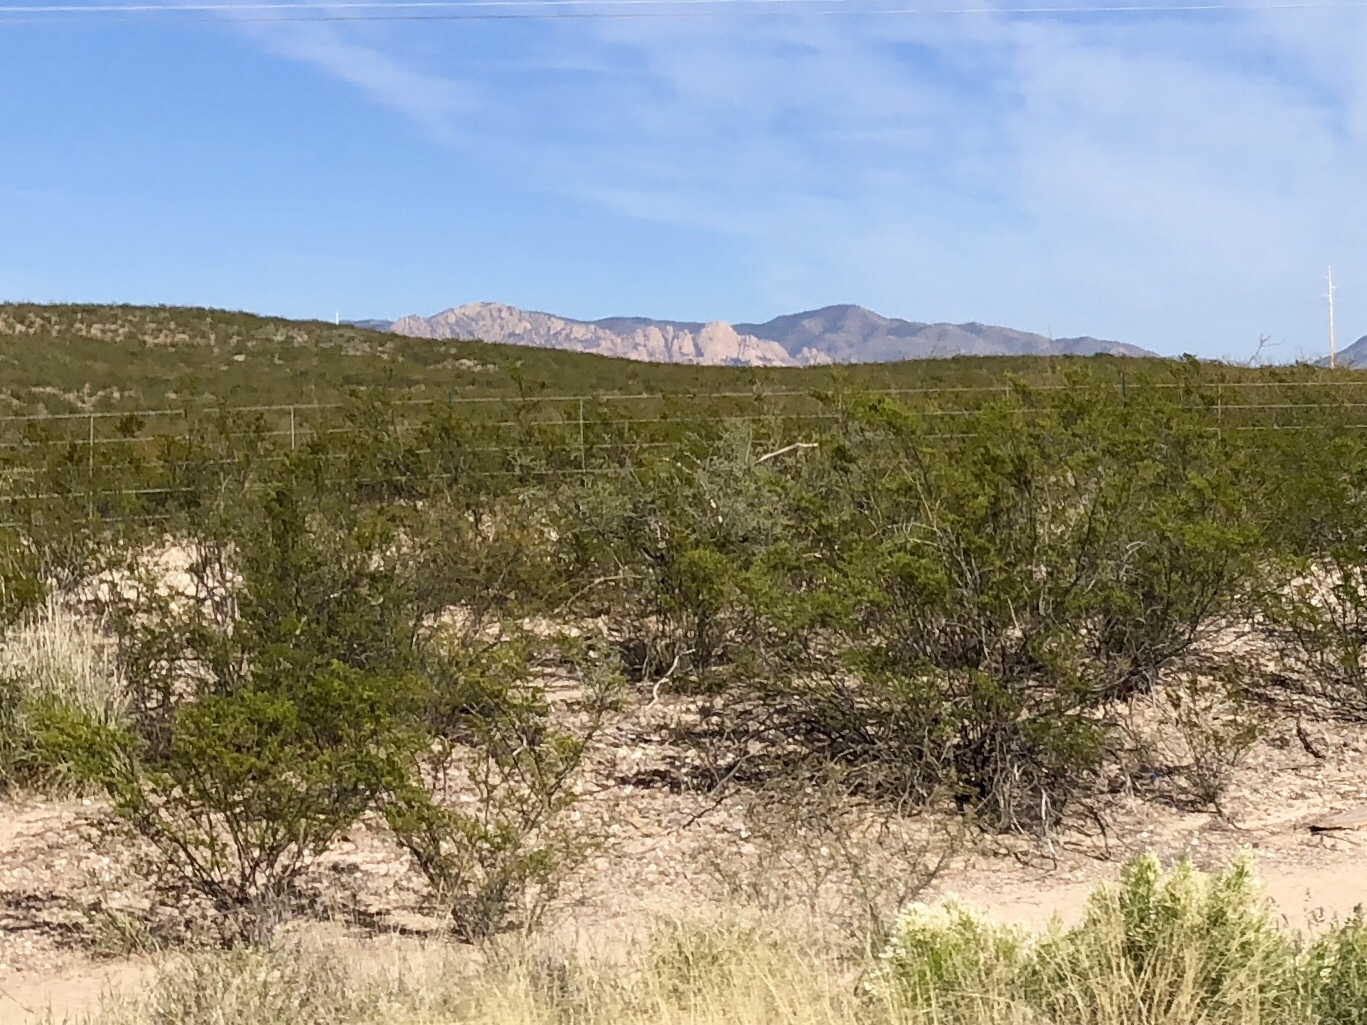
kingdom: Plantae
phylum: Tracheophyta
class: Magnoliopsida
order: Zygophyllales
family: Zygophyllaceae
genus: Larrea
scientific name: Larrea tridentata
